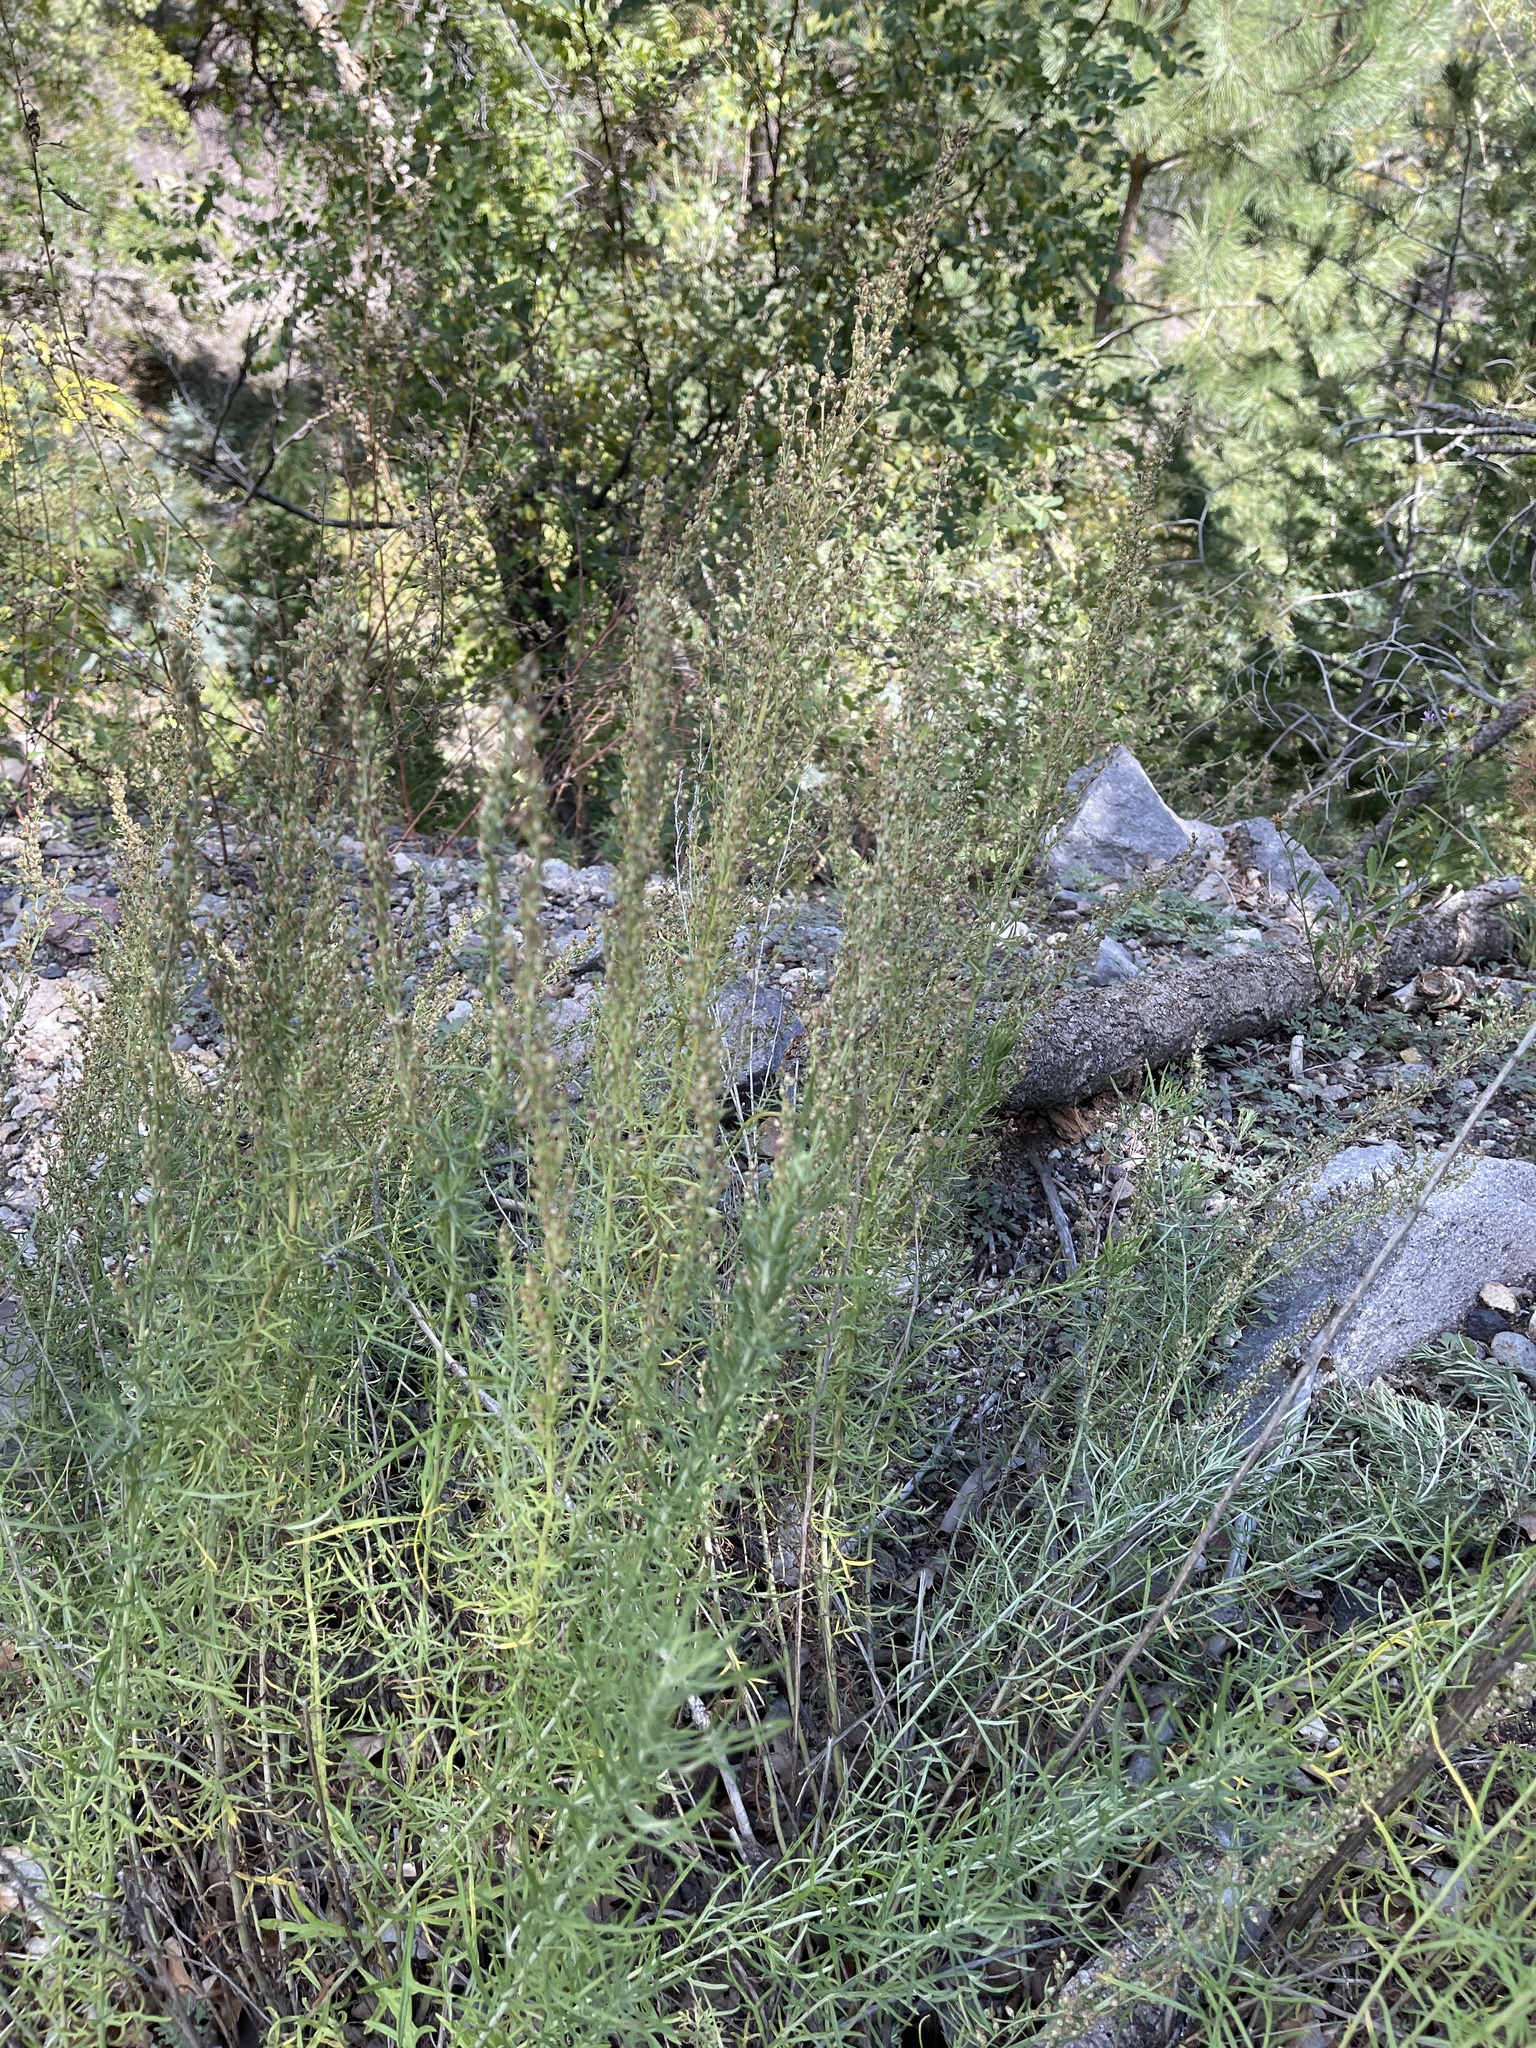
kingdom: Plantae
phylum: Tracheophyta
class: Magnoliopsida
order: Asterales
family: Asteraceae
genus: Artemisia
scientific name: Artemisia carruthii
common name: Carruth wormwood
